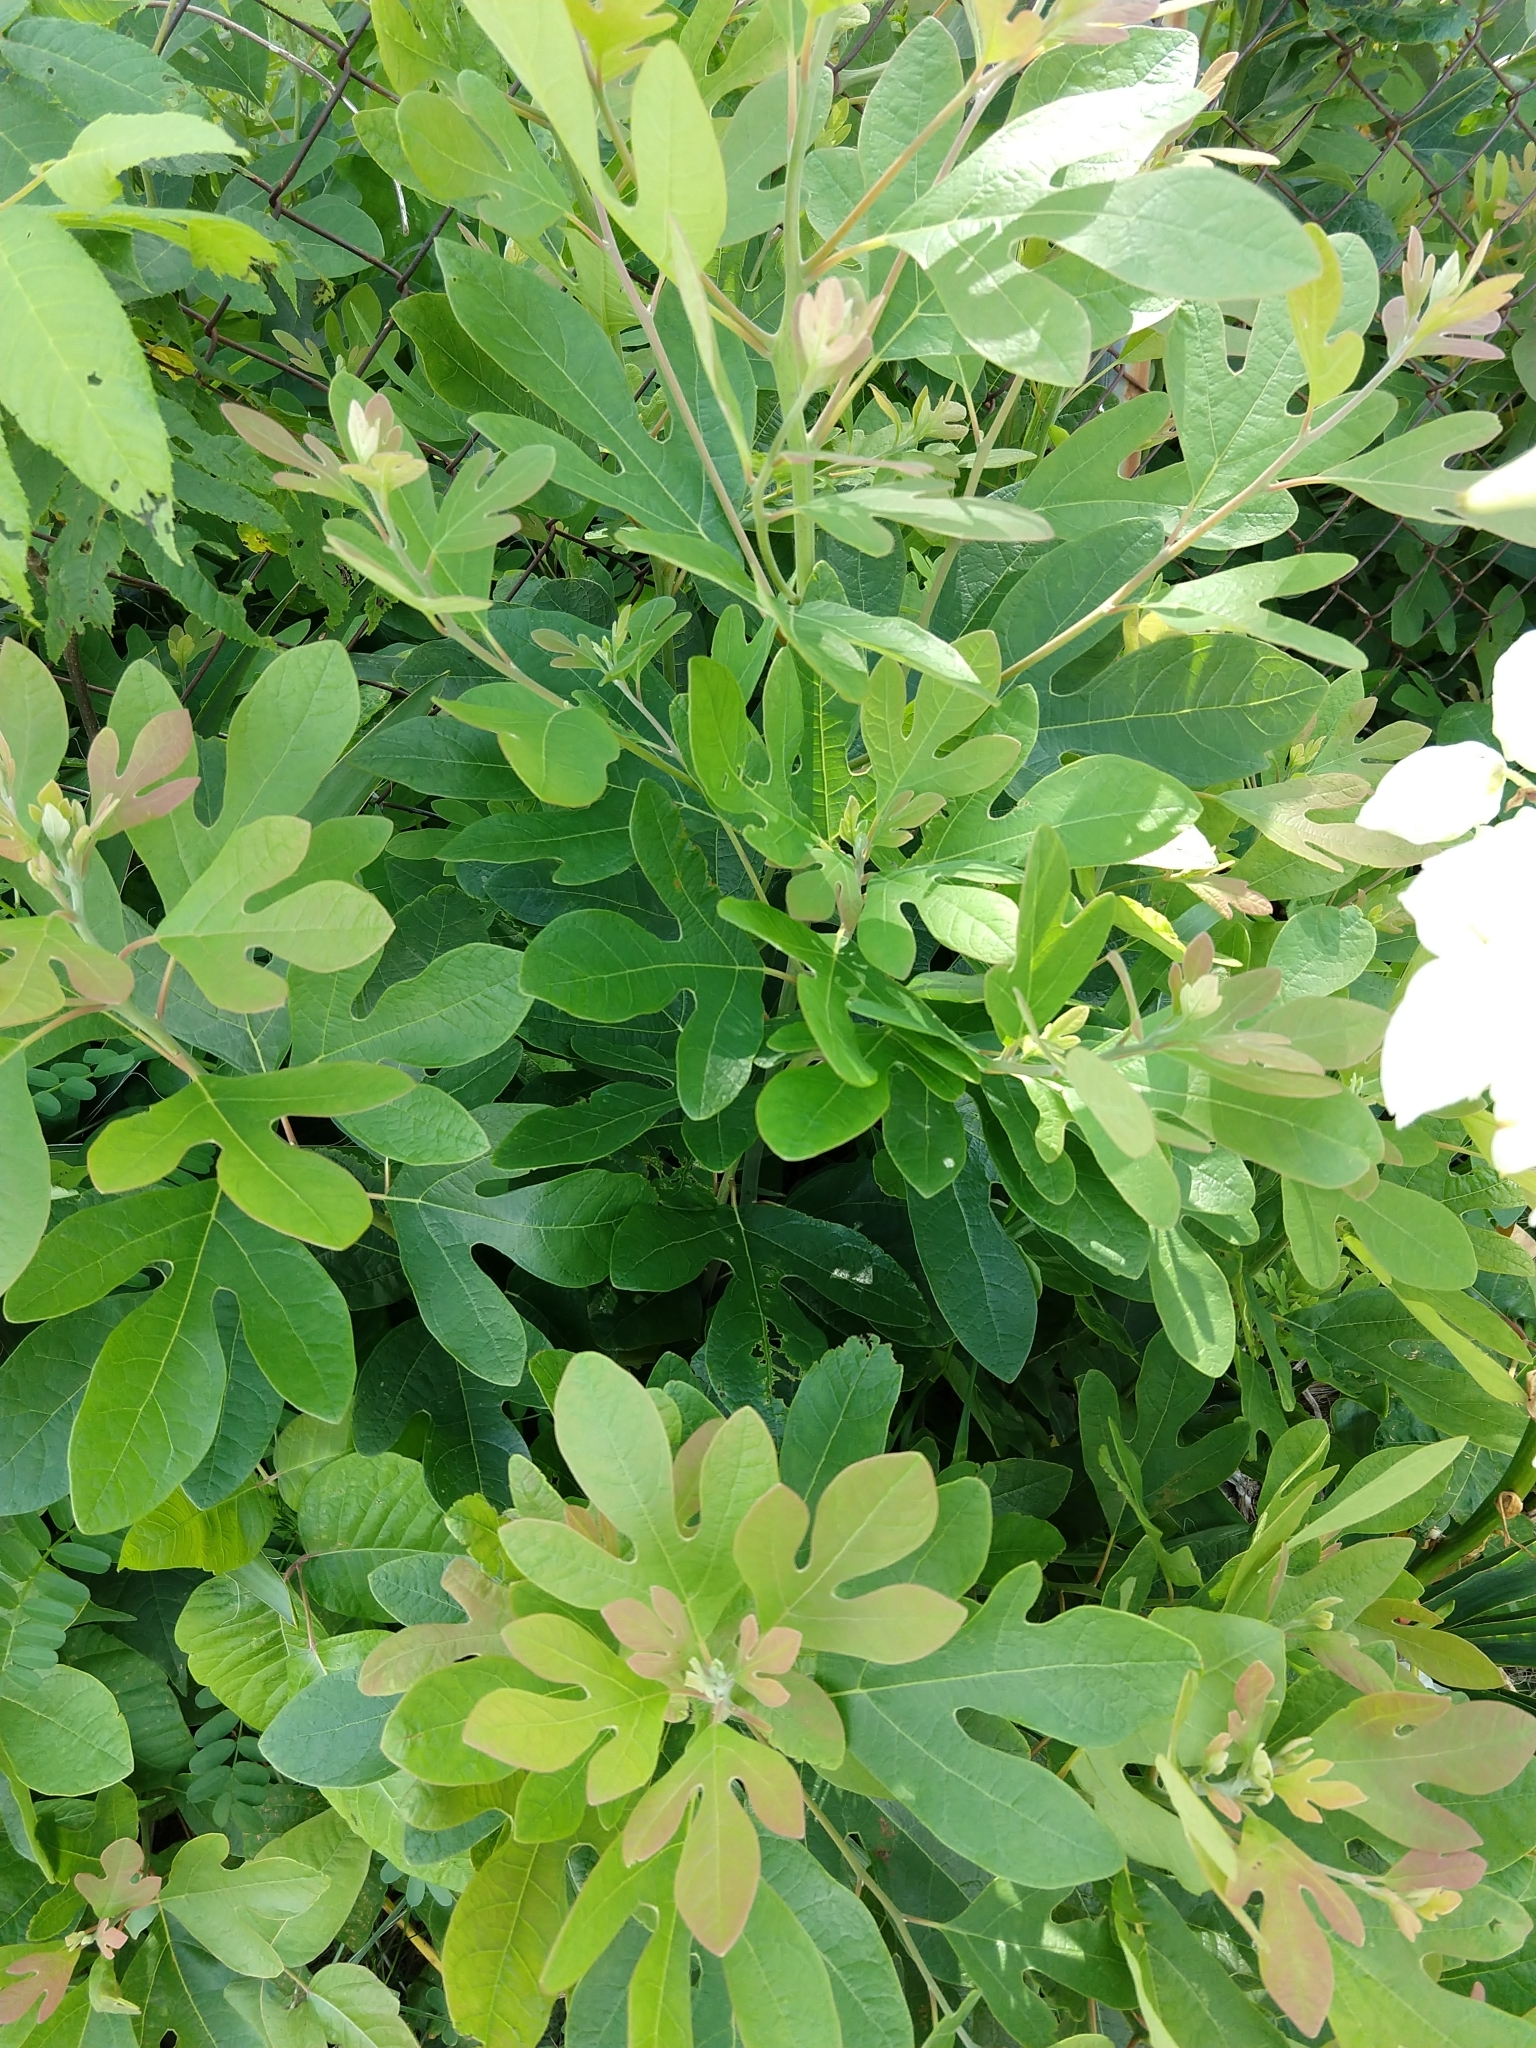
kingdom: Plantae
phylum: Tracheophyta
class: Magnoliopsida
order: Laurales
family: Lauraceae
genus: Sassafras
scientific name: Sassafras albidum
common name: Sassafras
